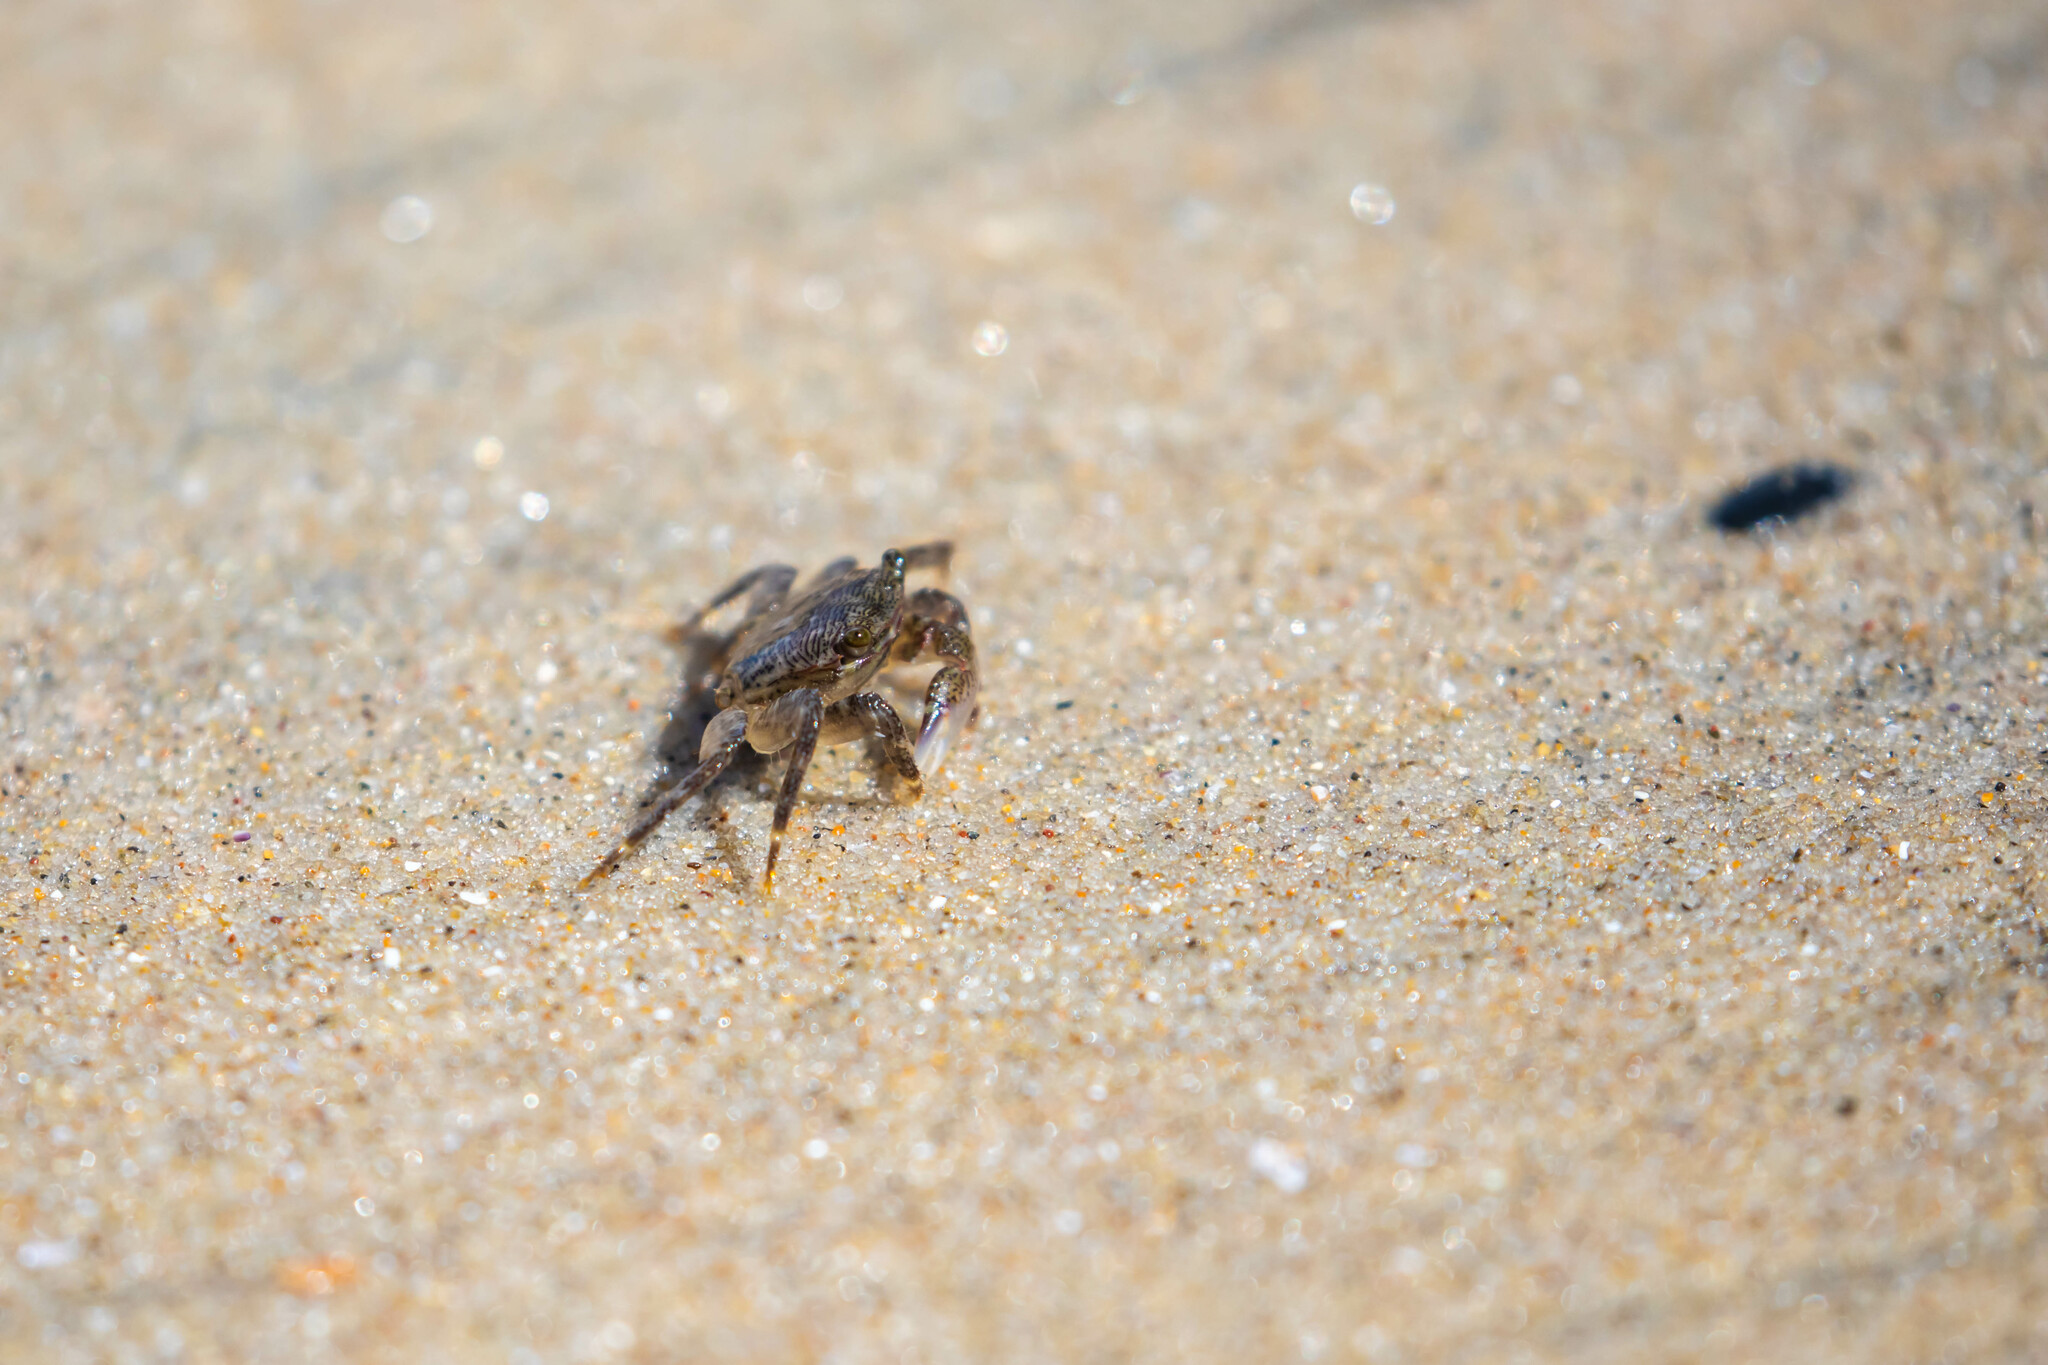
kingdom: Animalia
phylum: Arthropoda
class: Malacostraca
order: Decapoda
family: Grapsidae
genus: Pachygrapsus
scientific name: Pachygrapsus crassipes
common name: Striped shore crab
